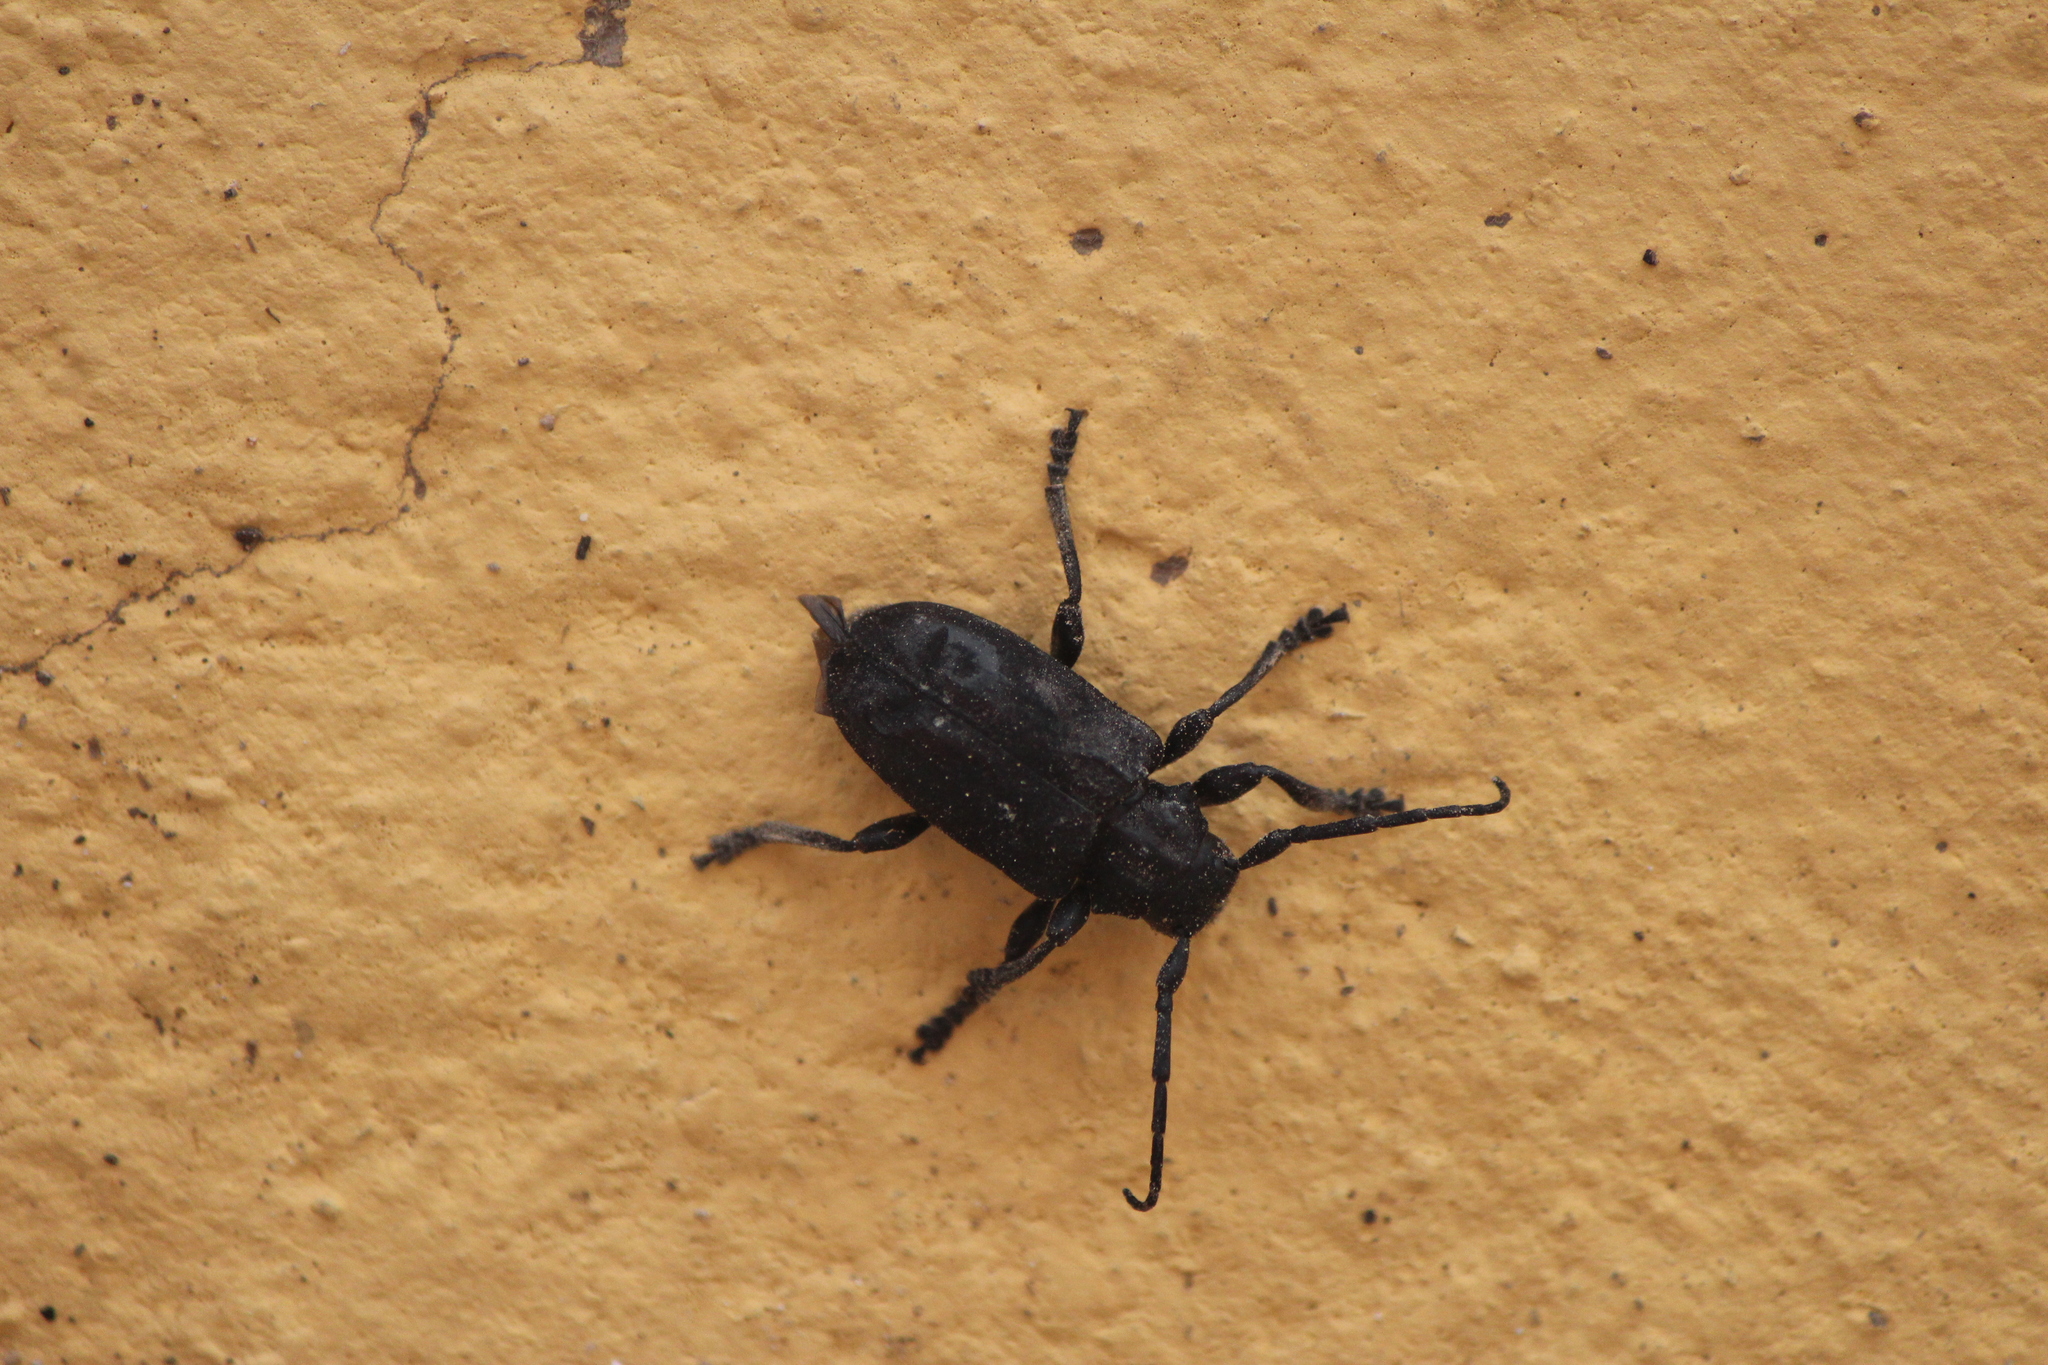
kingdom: Animalia
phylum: Arthropoda
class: Insecta
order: Coleoptera
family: Cerambycidae
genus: Acanthoderes
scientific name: Acanthoderes funeraria
